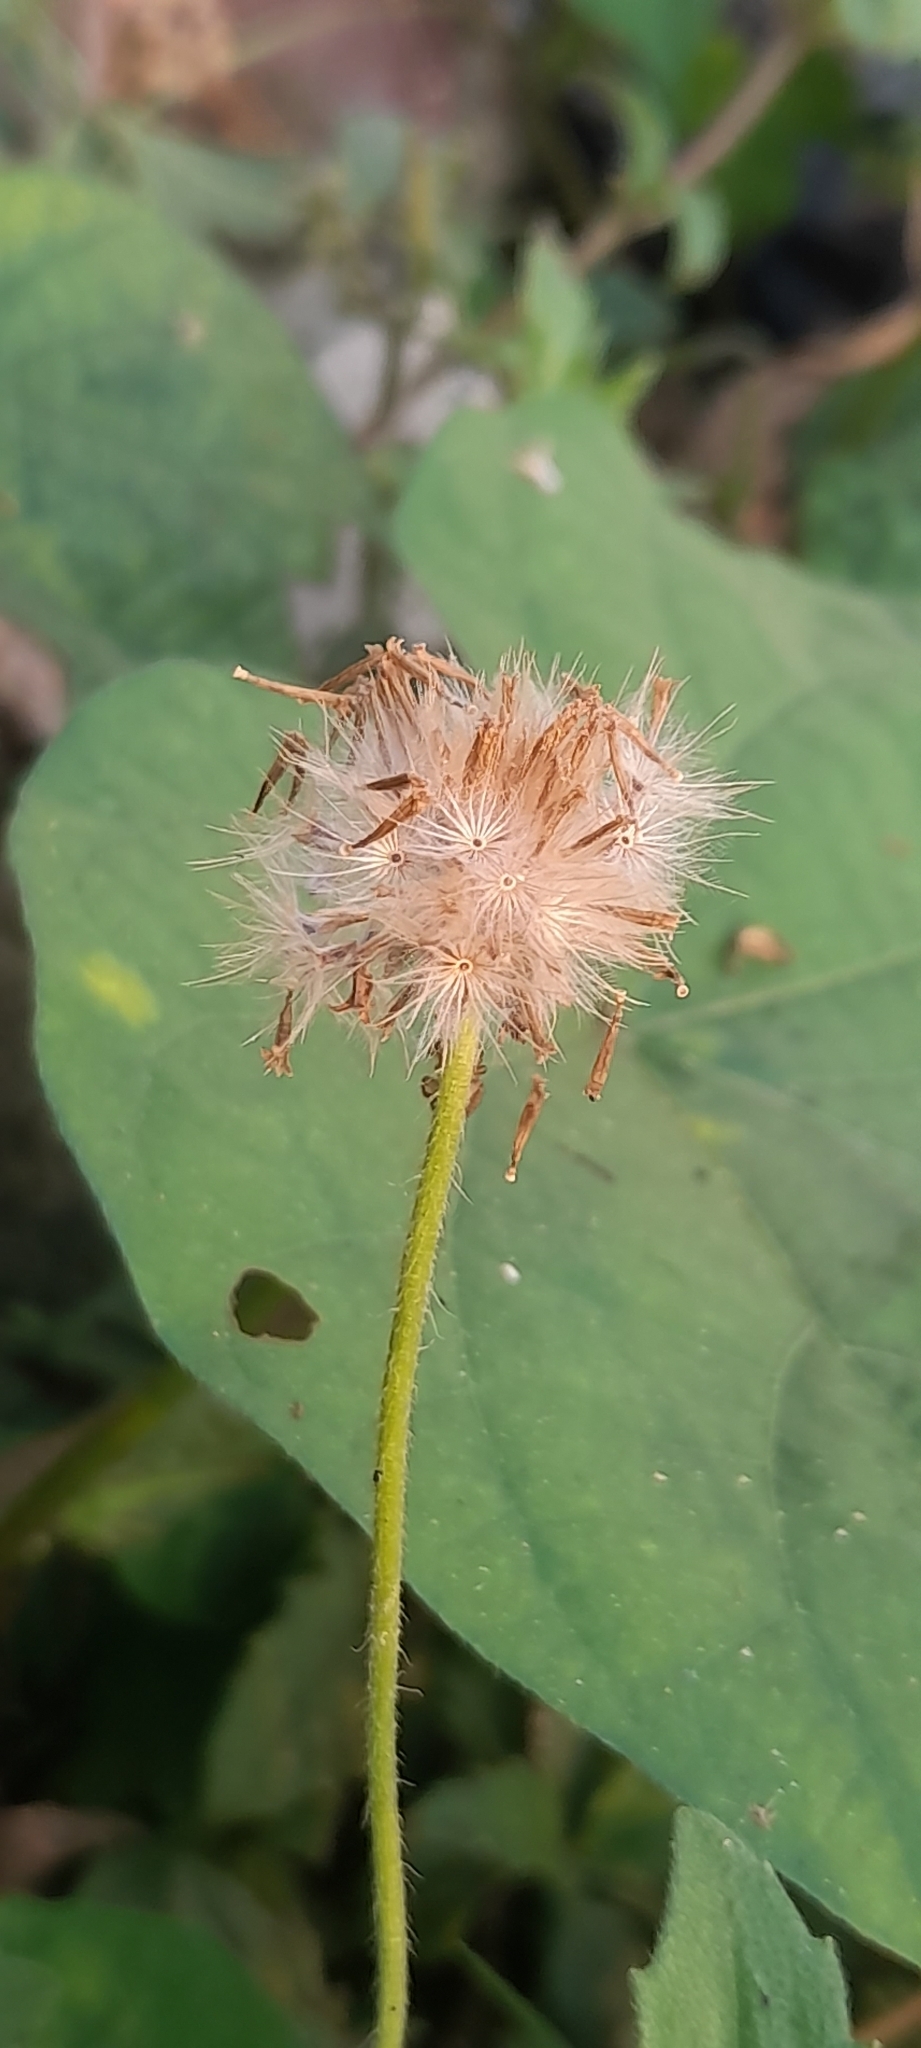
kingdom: Plantae
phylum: Tracheophyta
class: Magnoliopsida
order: Asterales
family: Asteraceae
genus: Tridax
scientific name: Tridax procumbens
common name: Coatbuttons
